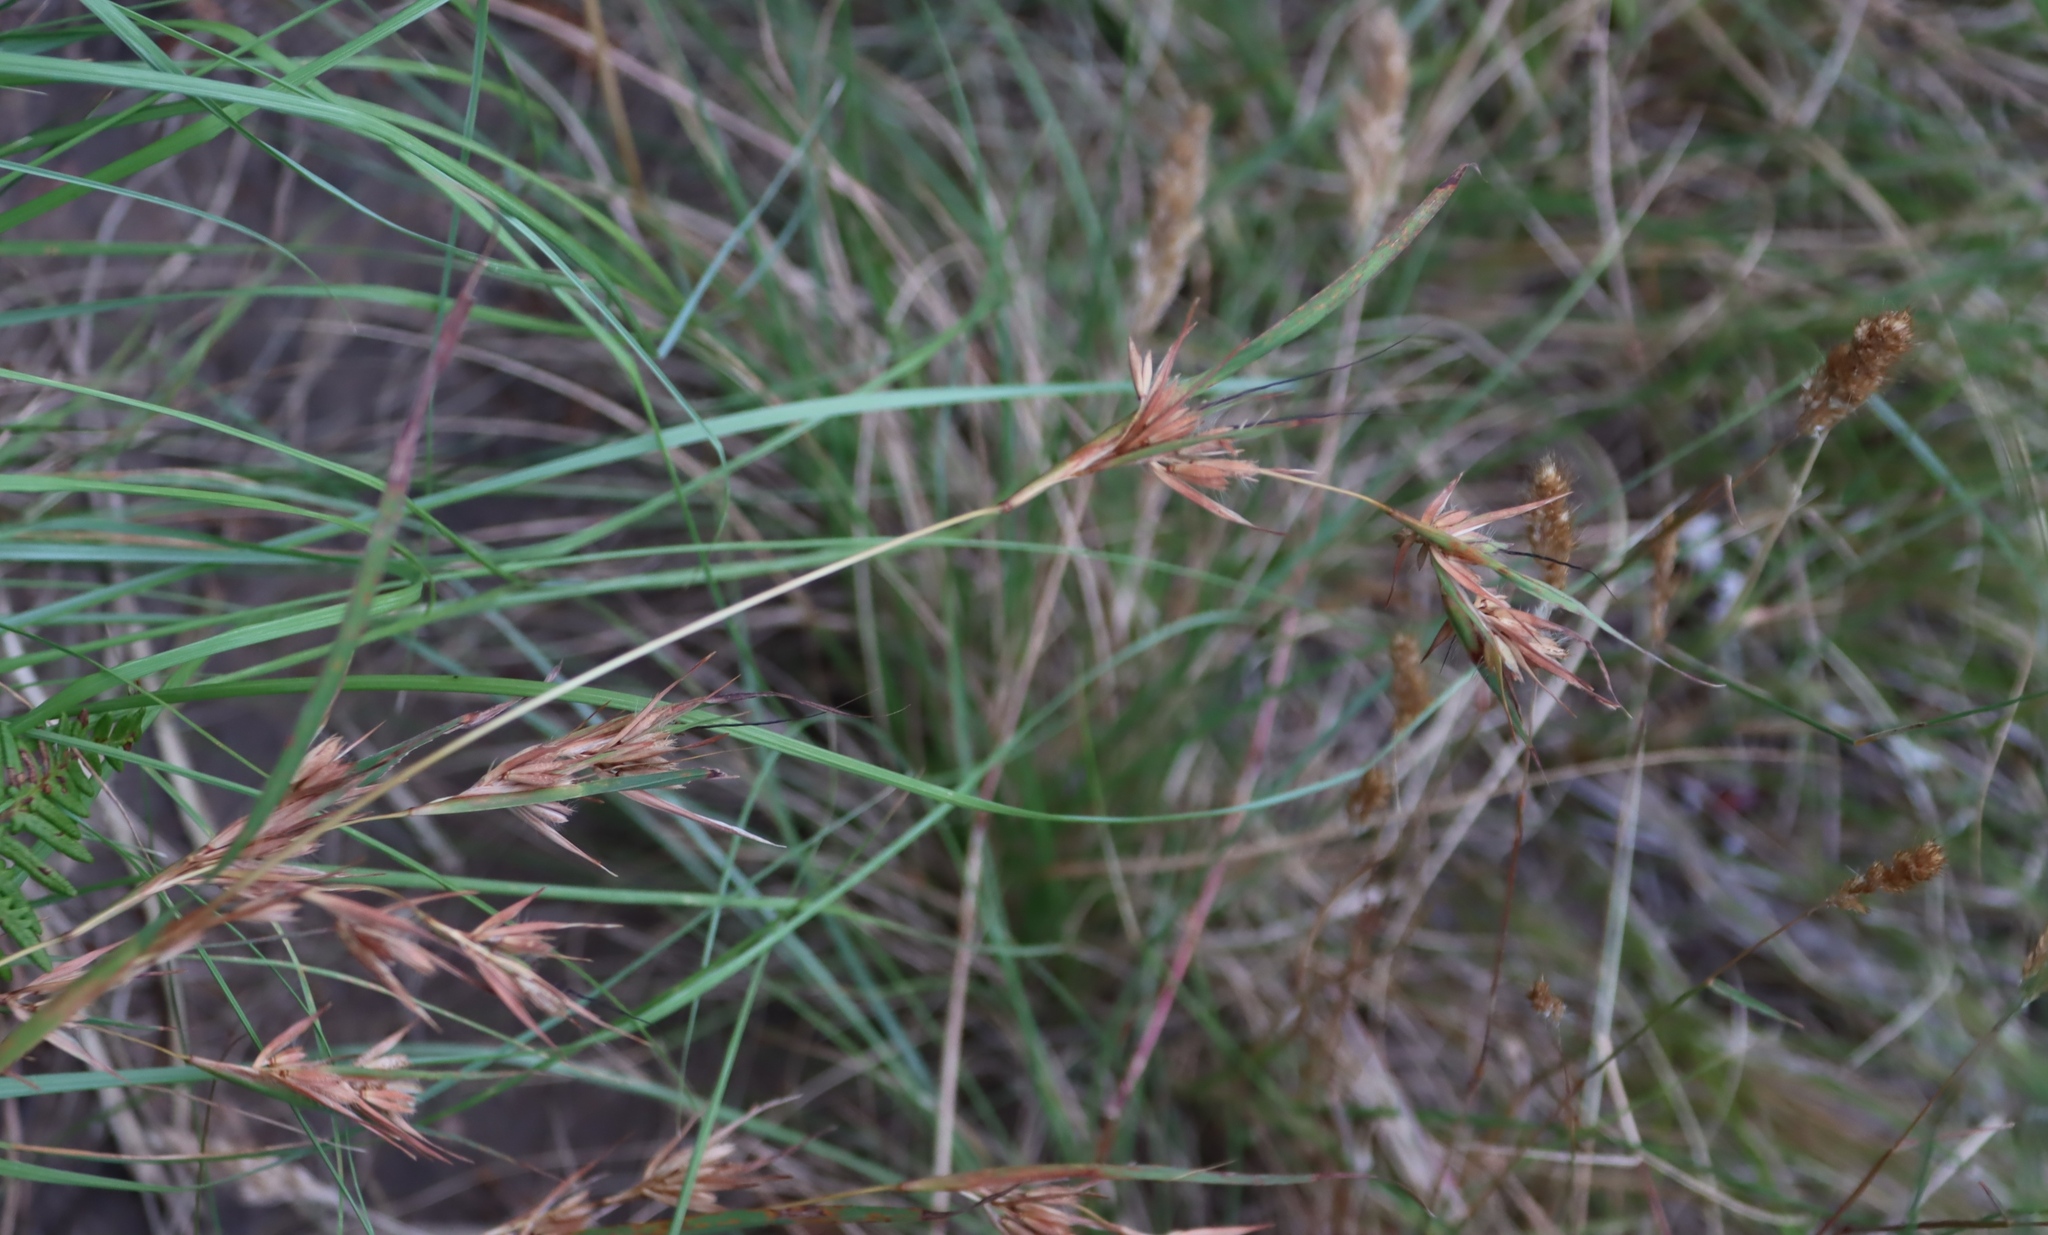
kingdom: Plantae
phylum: Tracheophyta
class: Liliopsida
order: Poales
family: Poaceae
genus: Themeda
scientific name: Themeda triandra
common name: Kangaroo grass
